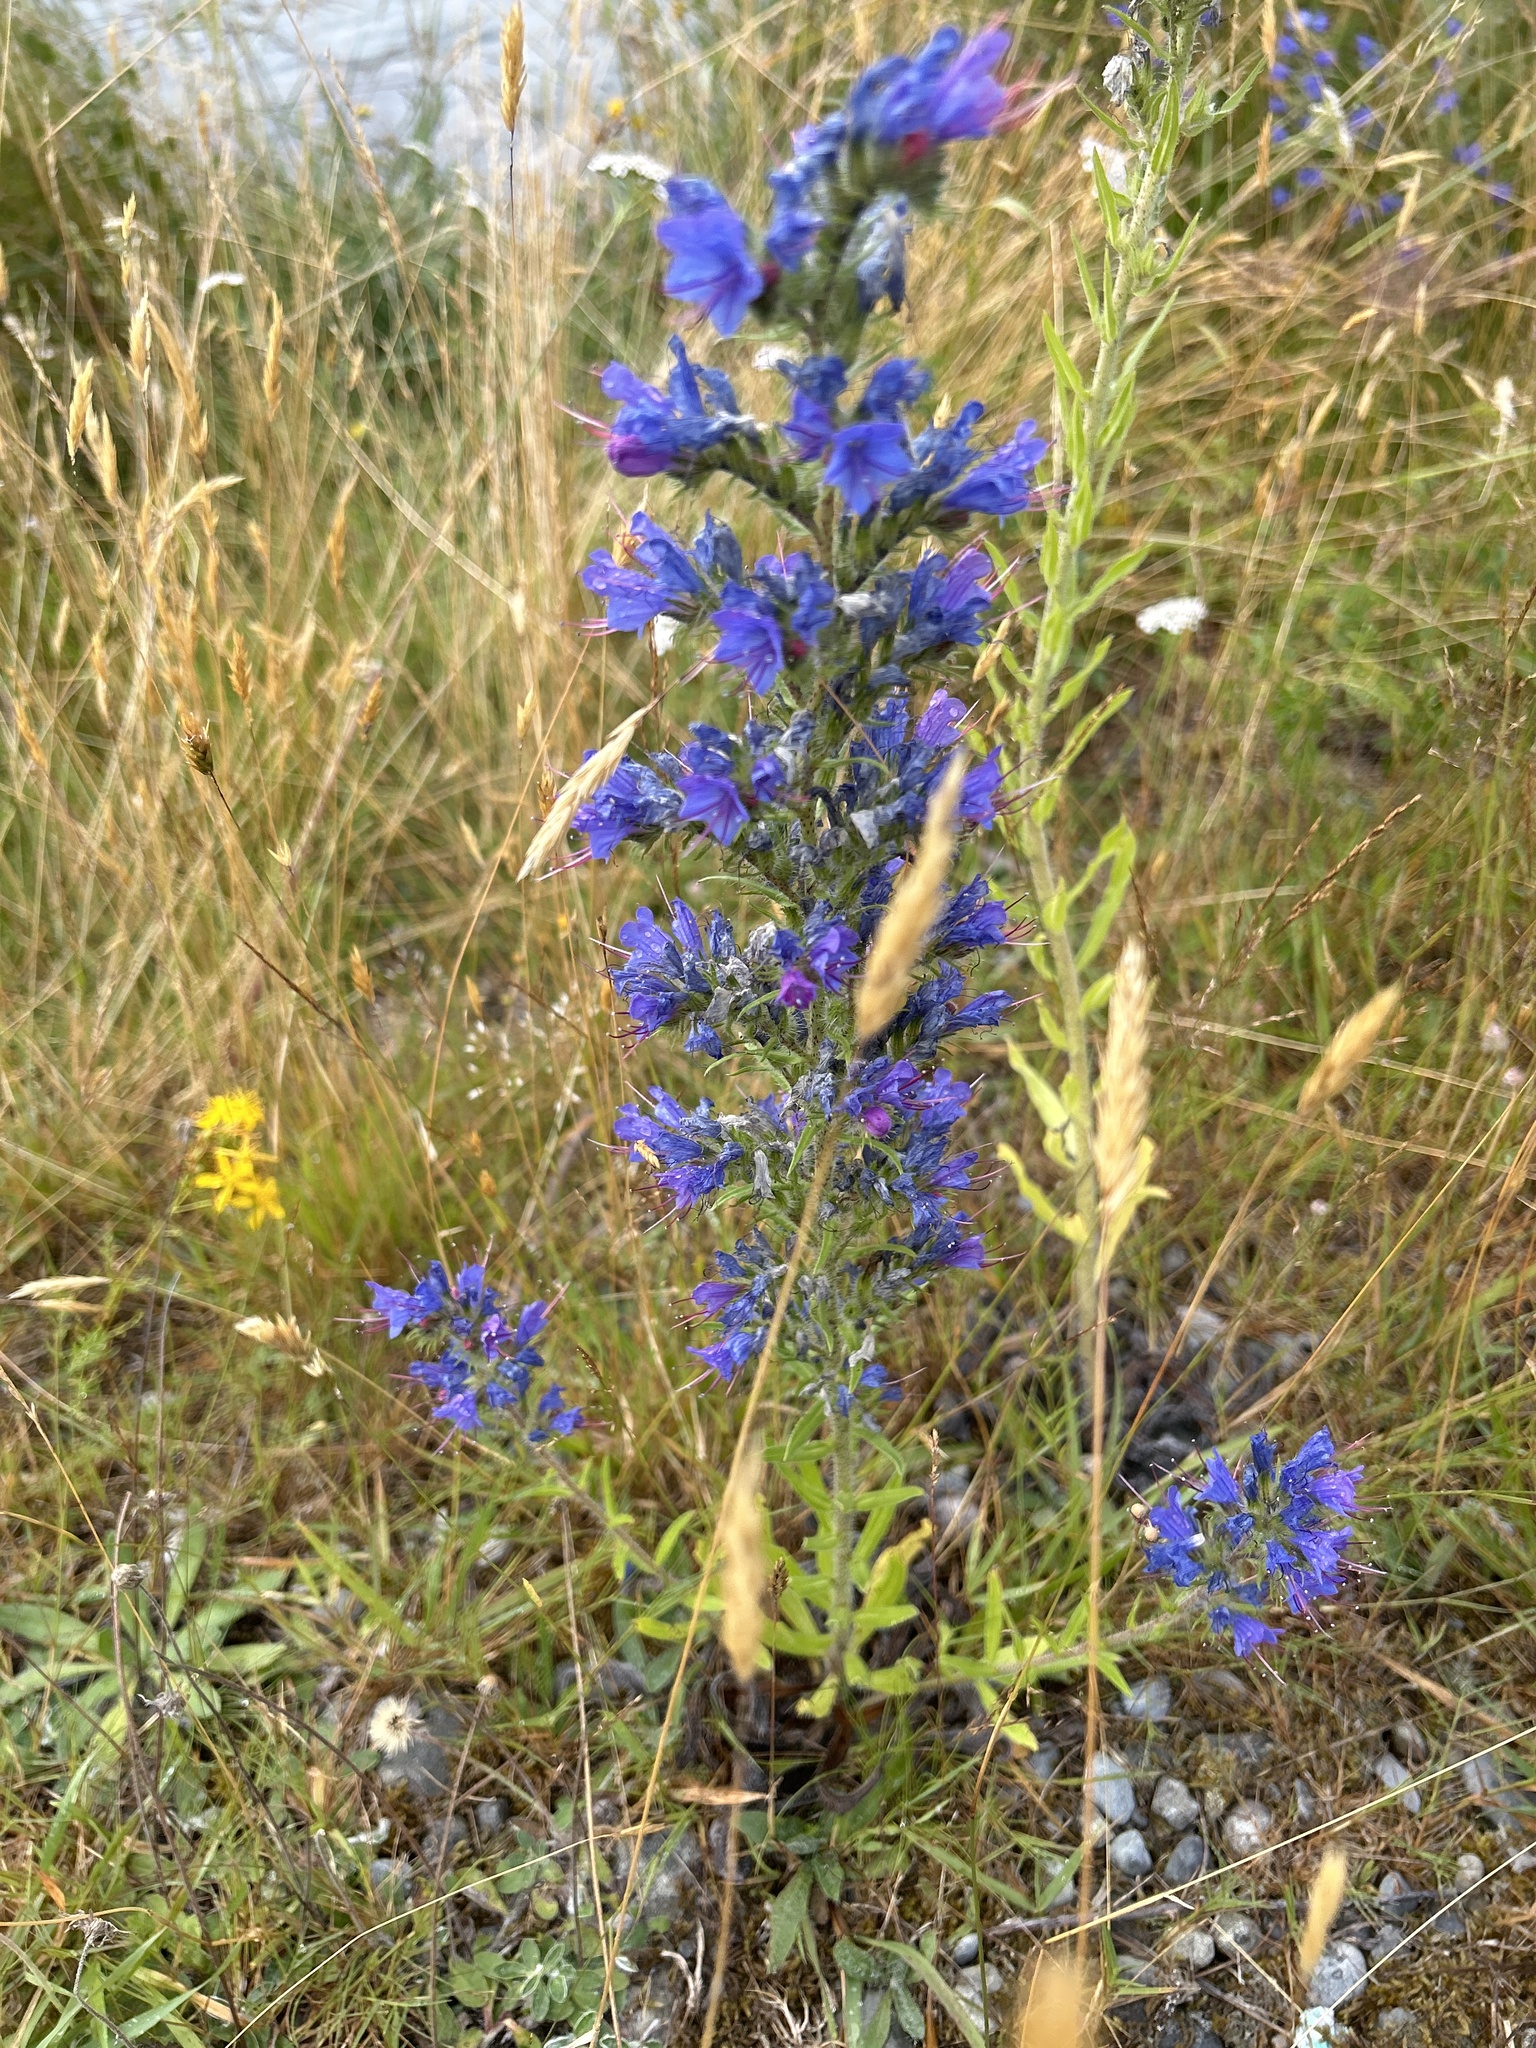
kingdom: Plantae
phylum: Tracheophyta
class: Magnoliopsida
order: Boraginales
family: Boraginaceae
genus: Echium
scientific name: Echium vulgare
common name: Common viper's bugloss
